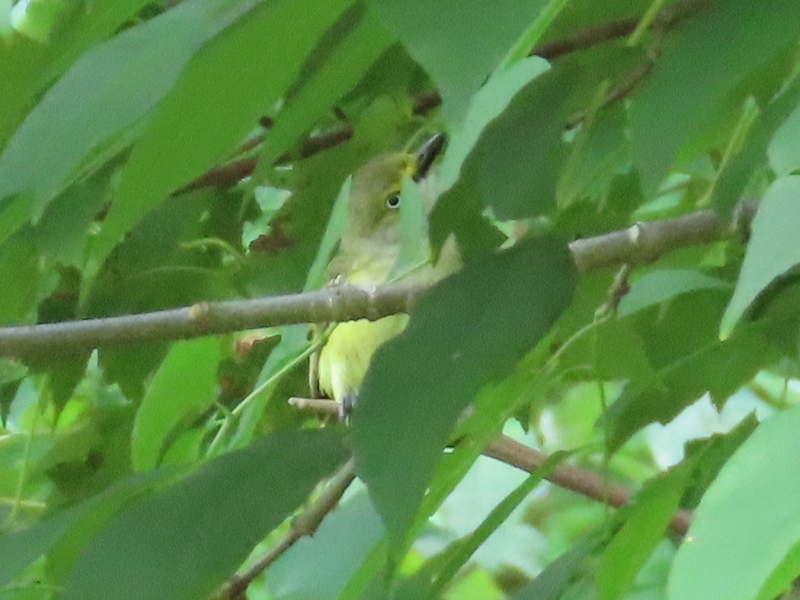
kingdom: Animalia
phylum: Chordata
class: Aves
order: Passeriformes
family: Vireonidae
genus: Vireo
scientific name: Vireo griseus
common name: White-eyed vireo
